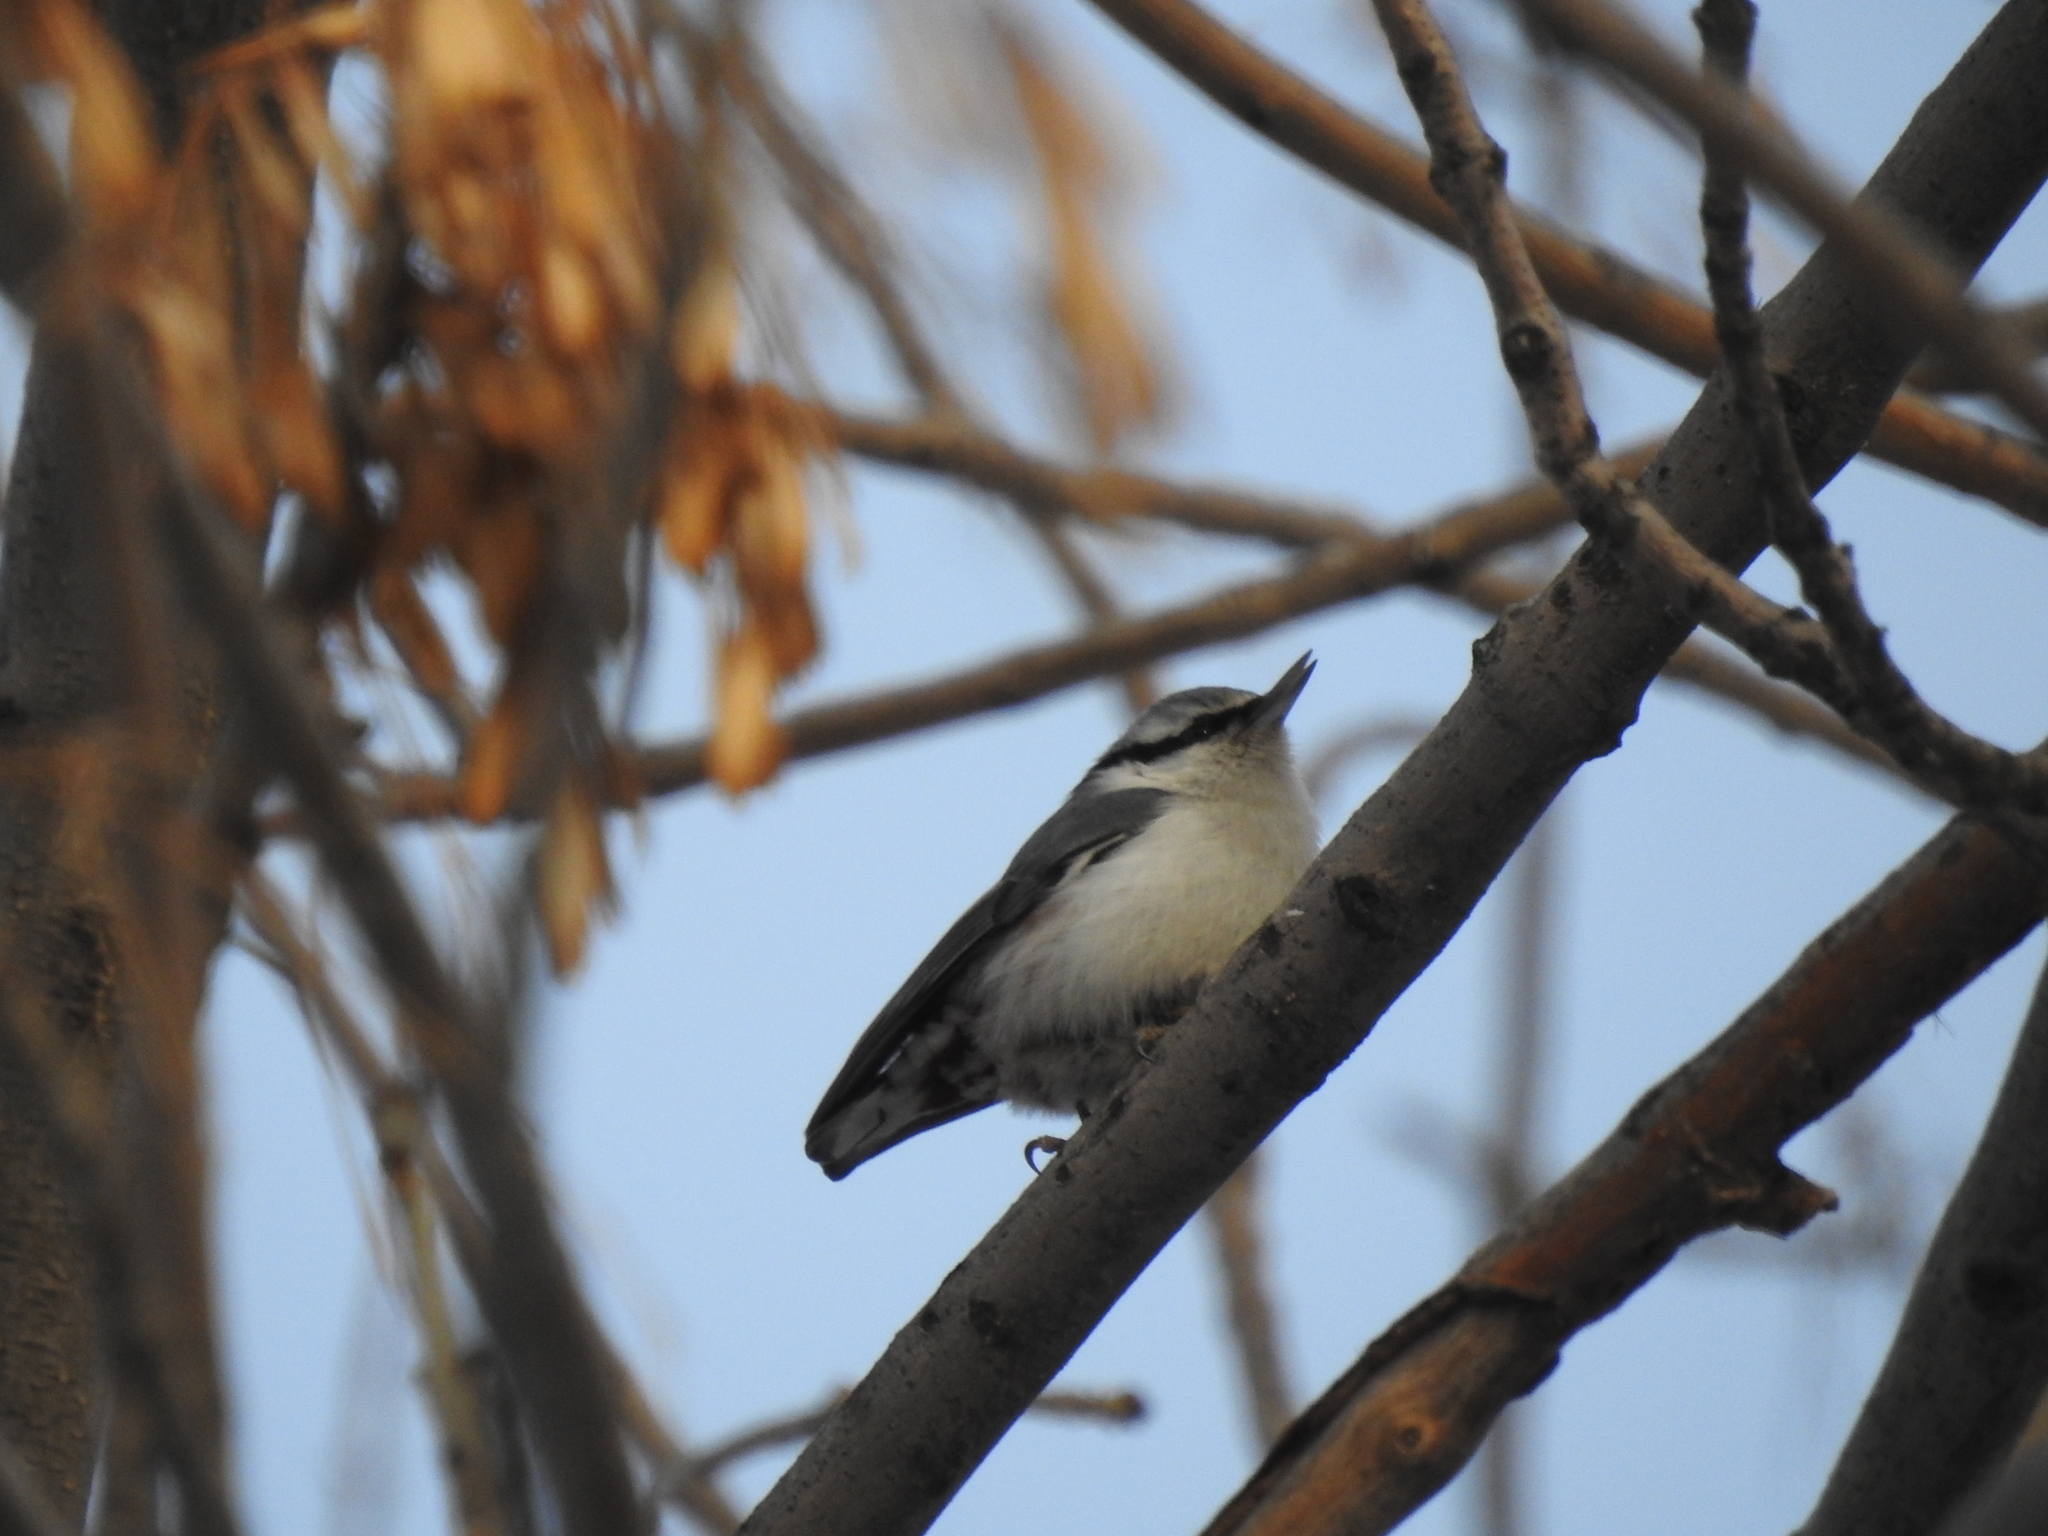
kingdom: Animalia
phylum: Chordata
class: Aves
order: Passeriformes
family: Sittidae
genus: Sitta
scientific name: Sitta europaea
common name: Eurasian nuthatch
